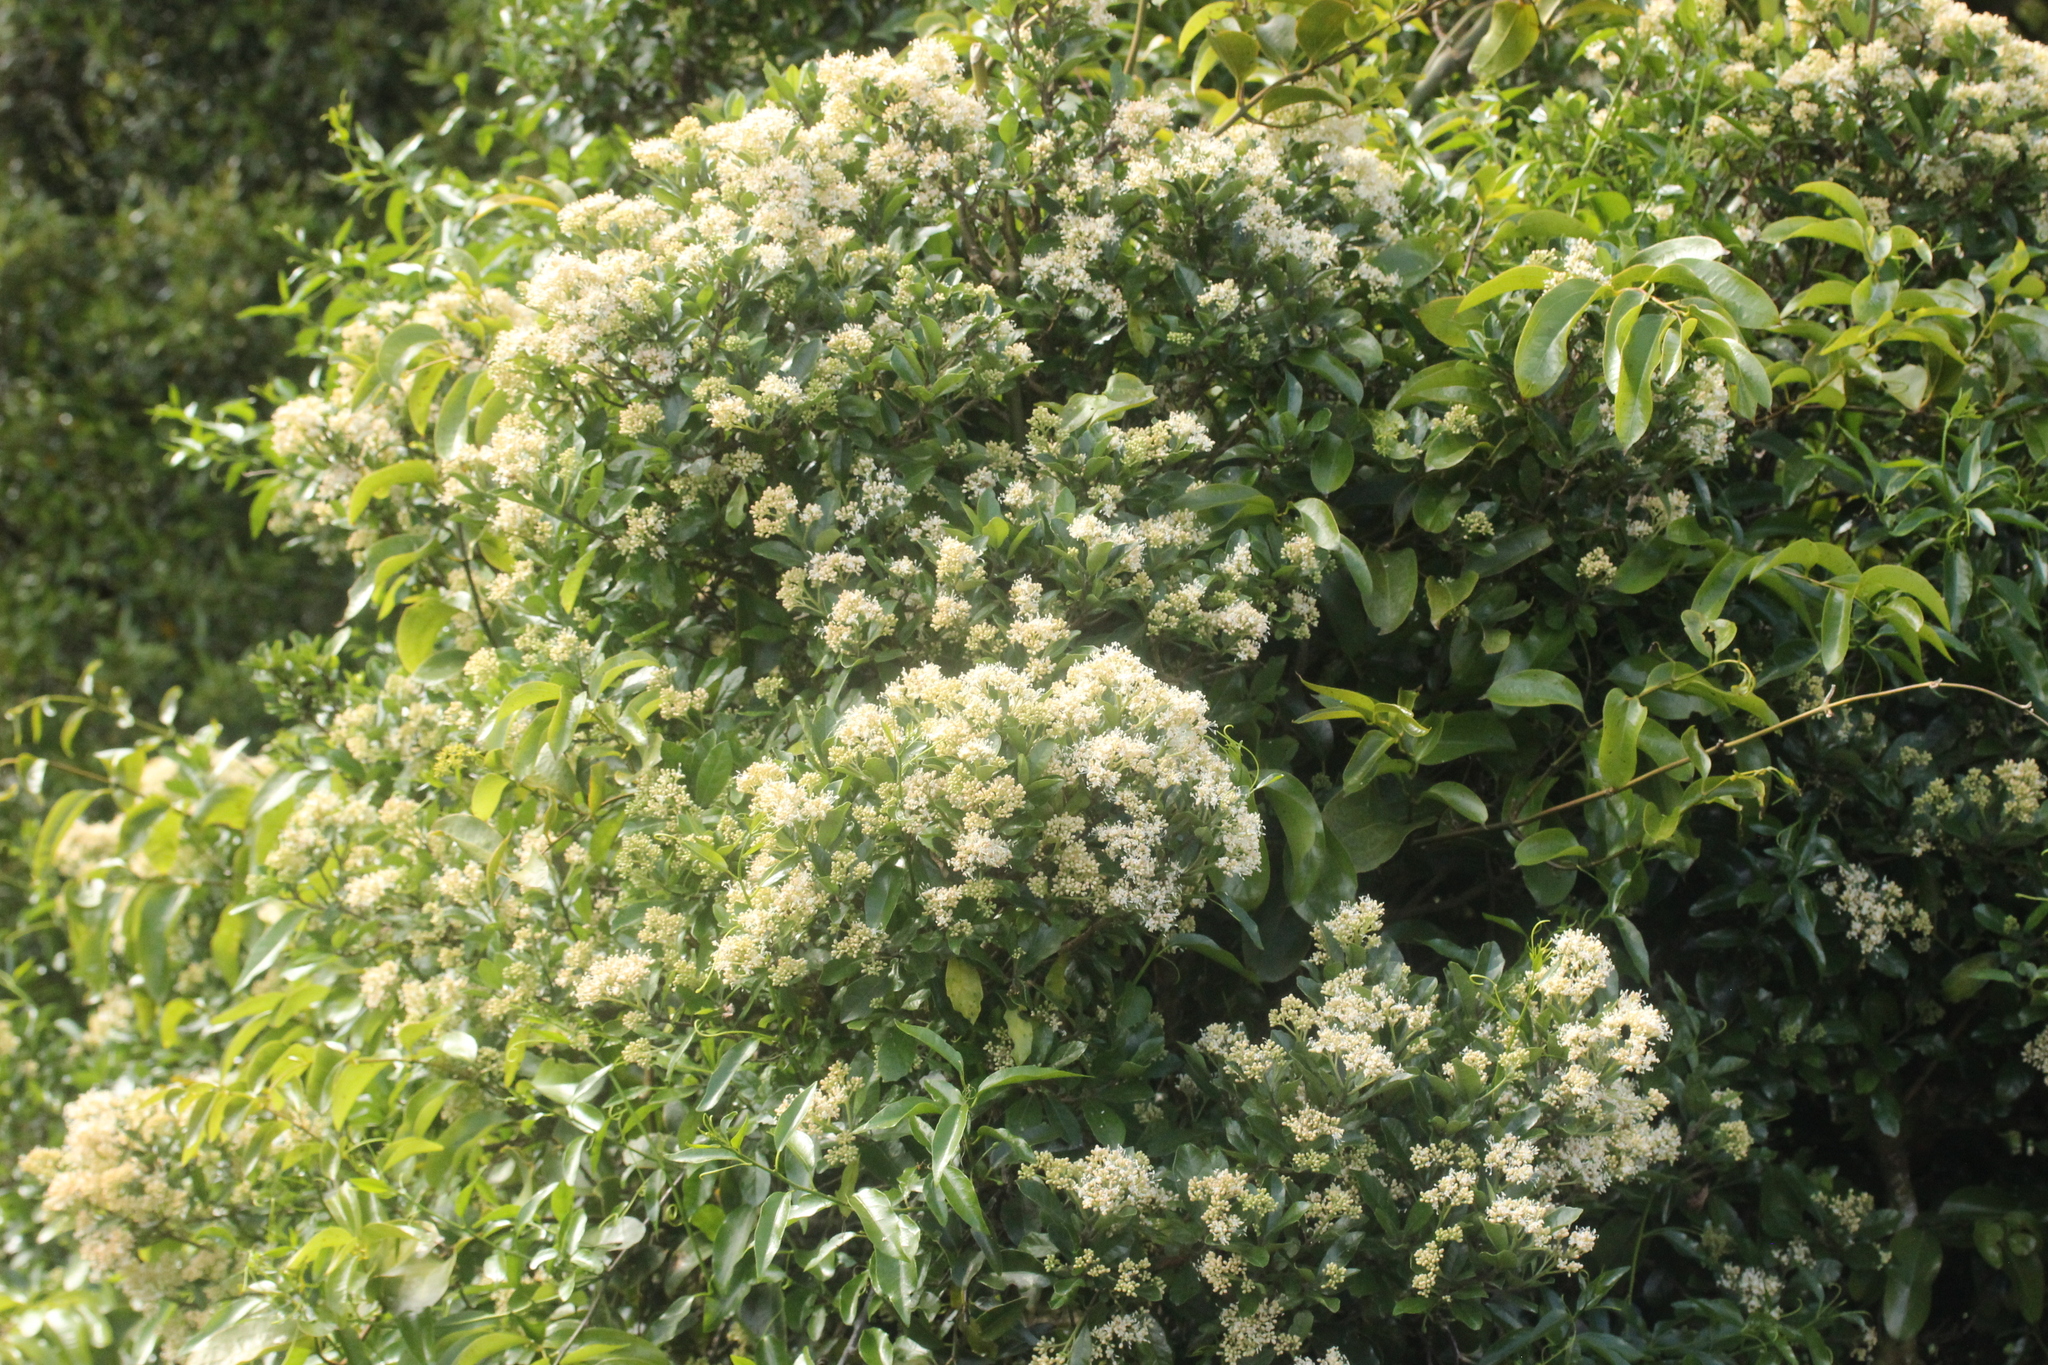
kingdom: Plantae
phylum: Tracheophyta
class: Magnoliopsida
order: Apiales
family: Pennantiaceae
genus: Pennantia
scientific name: Pennantia corymbosa
